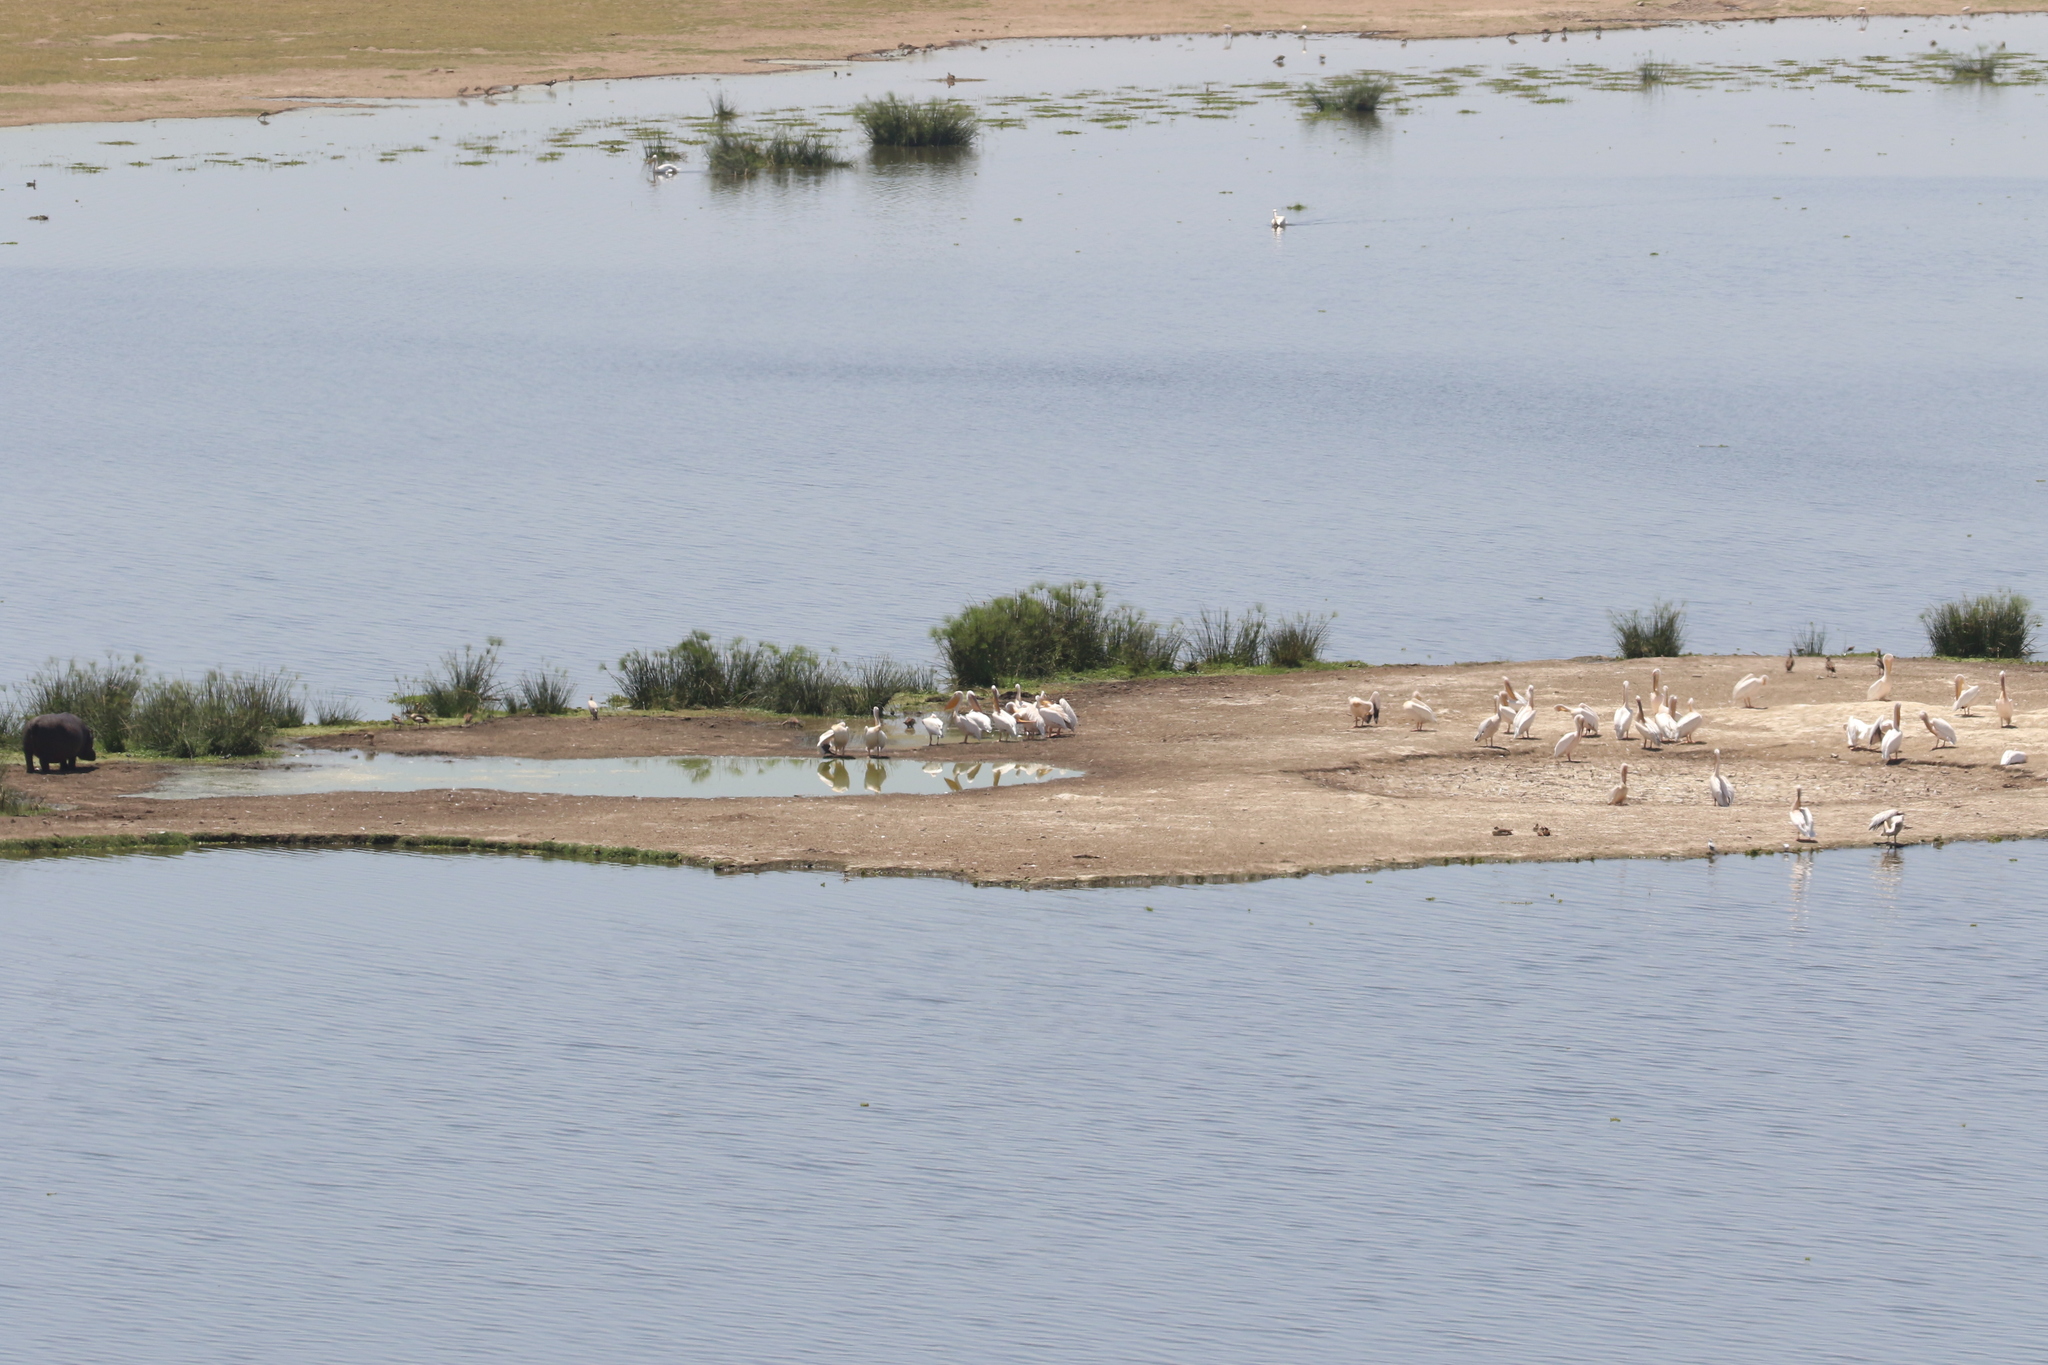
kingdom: Animalia
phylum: Chordata
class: Aves
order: Pelecaniformes
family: Pelecanidae
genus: Pelecanus
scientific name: Pelecanus onocrotalus
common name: Great white pelican
